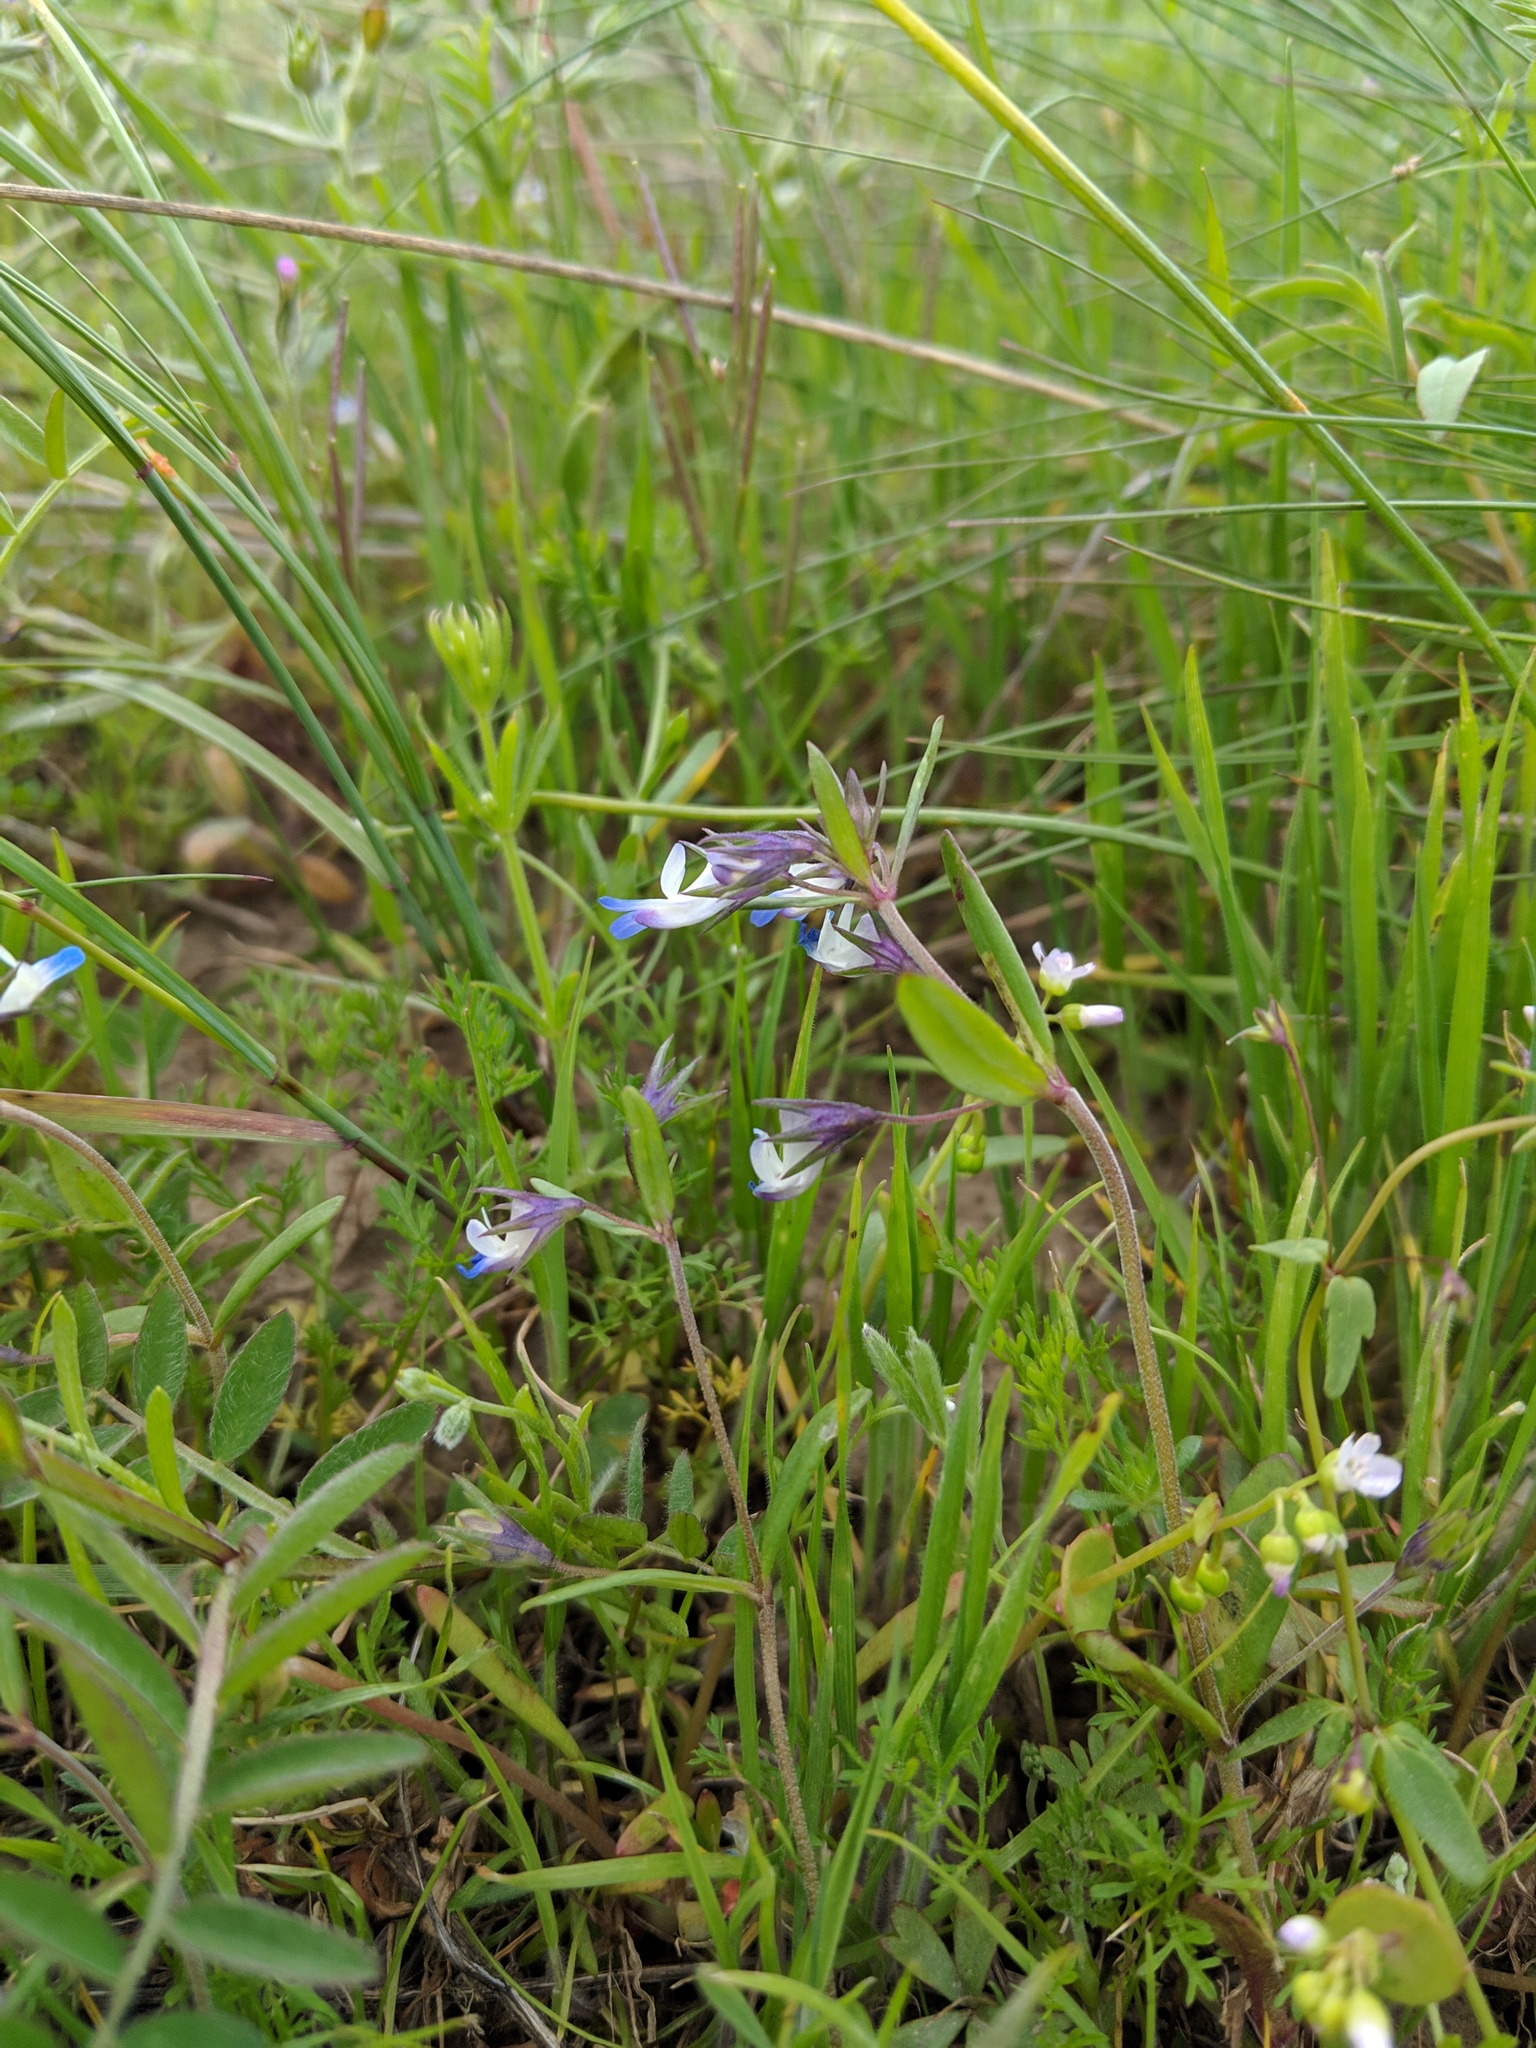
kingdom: Plantae
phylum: Tracheophyta
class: Magnoliopsida
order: Lamiales
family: Plantaginaceae
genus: Collinsia
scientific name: Collinsia parviflora
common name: Blue-lips
